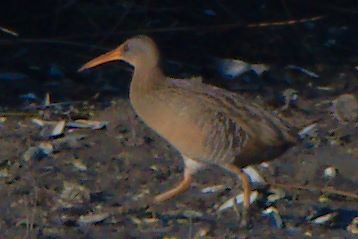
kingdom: Animalia
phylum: Chordata
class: Aves
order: Gruiformes
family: Rallidae
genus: Rallus
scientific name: Rallus crepitans
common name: Clapper rail
